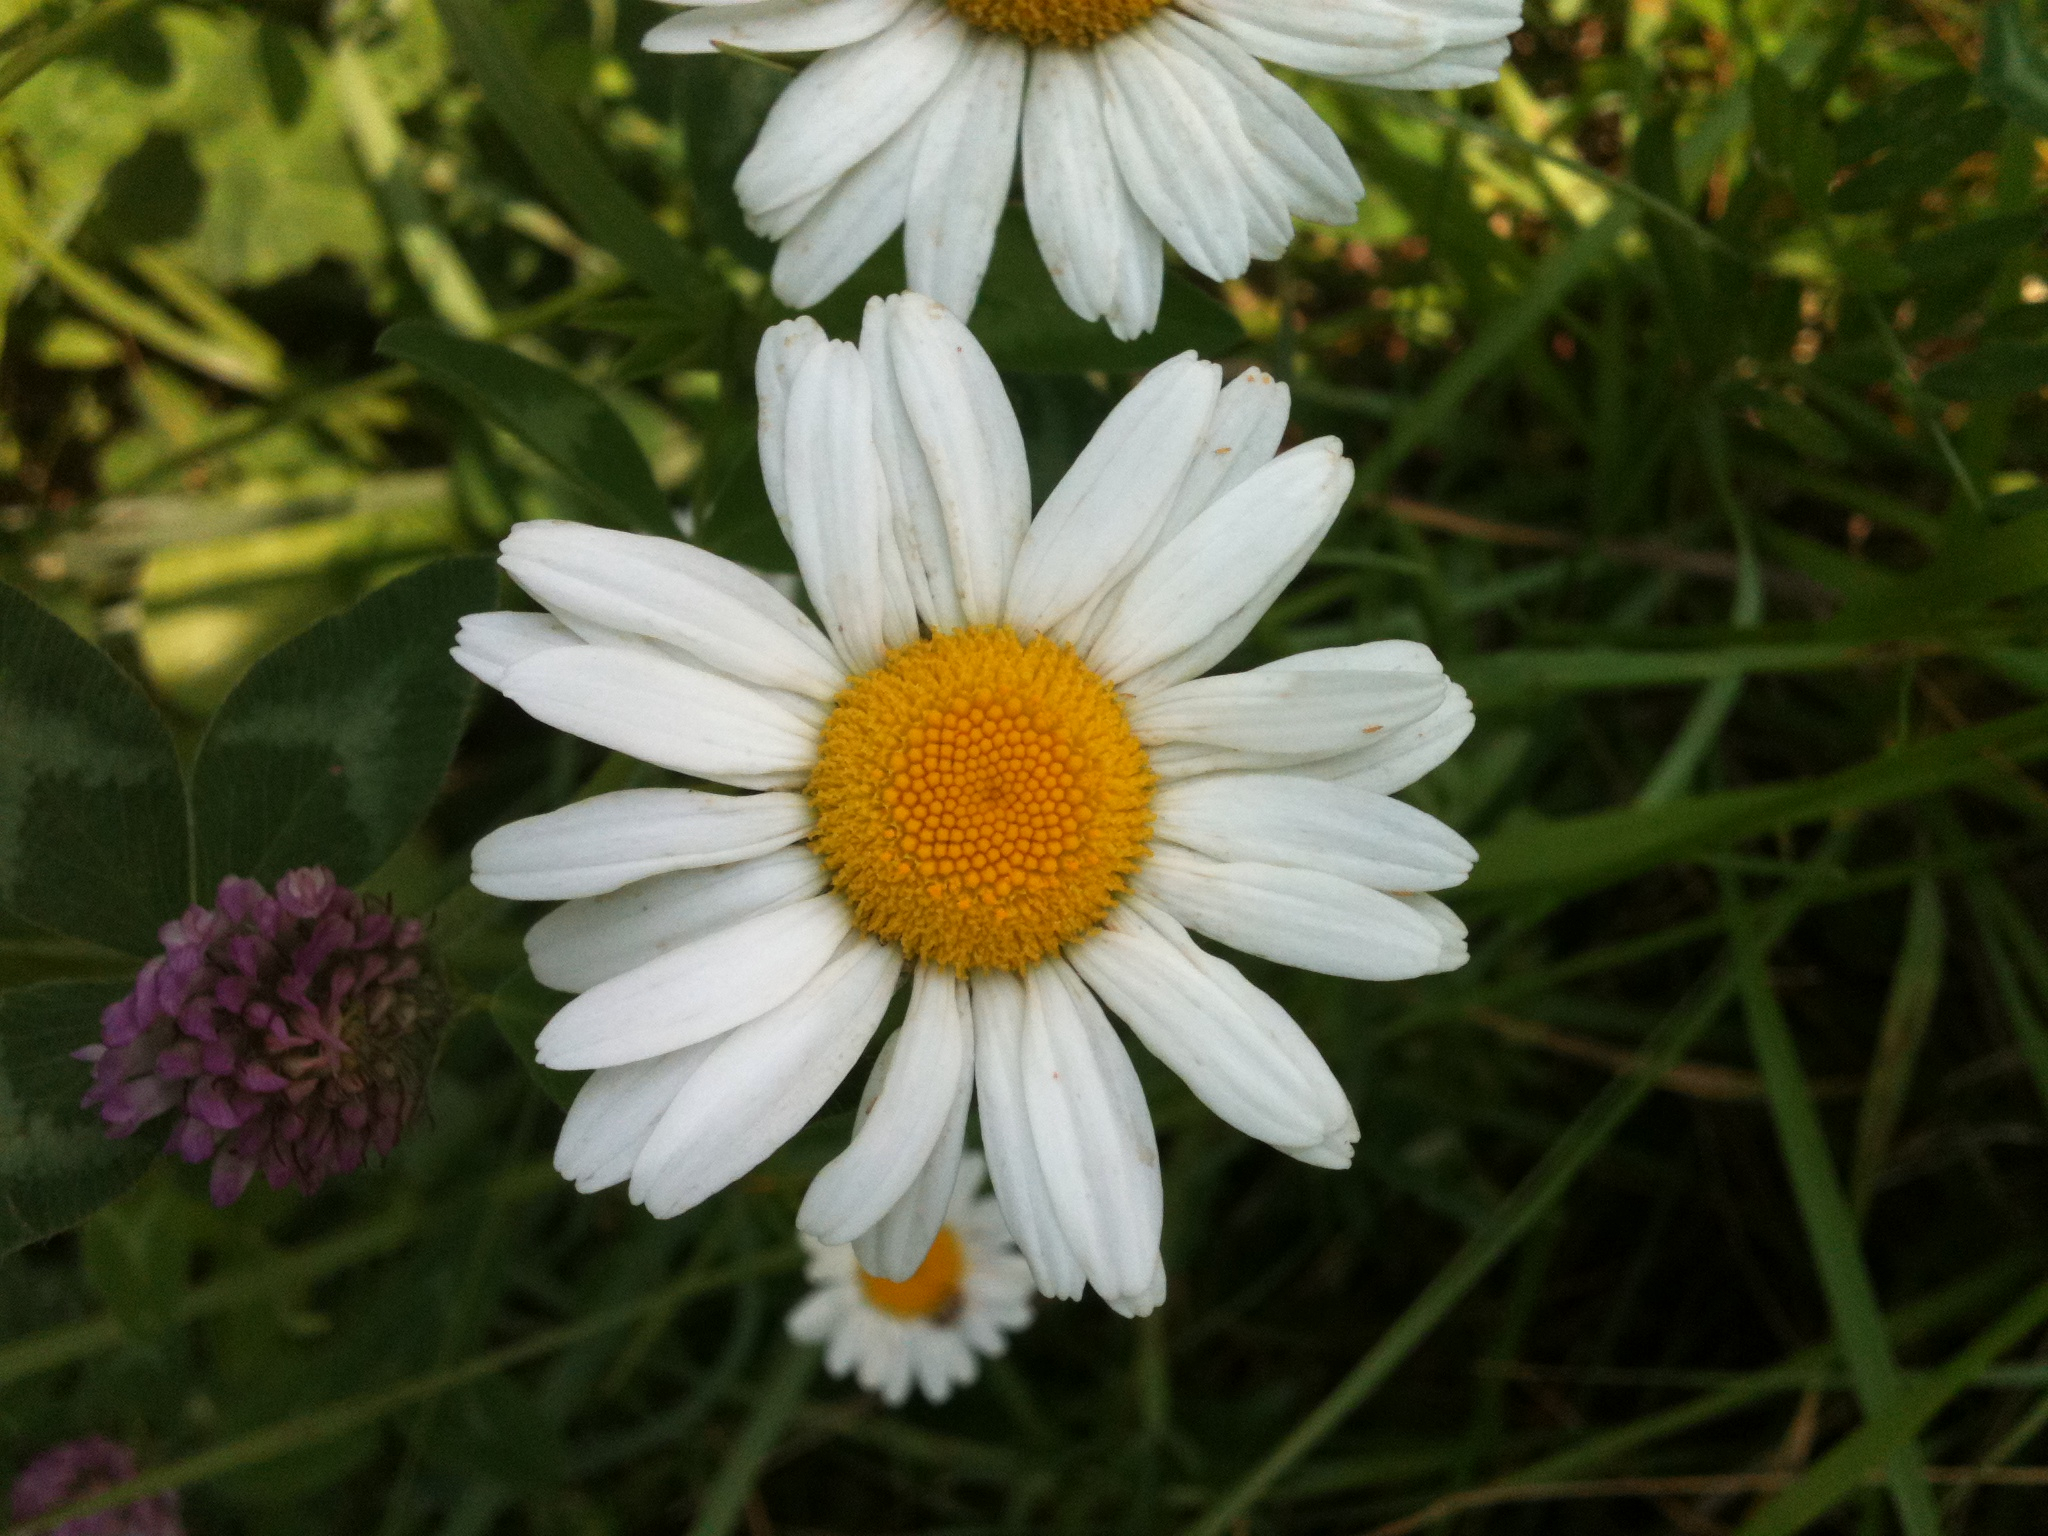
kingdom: Plantae
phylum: Tracheophyta
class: Magnoliopsida
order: Asterales
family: Asteraceae
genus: Leucanthemum
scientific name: Leucanthemum vulgare
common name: Oxeye daisy
